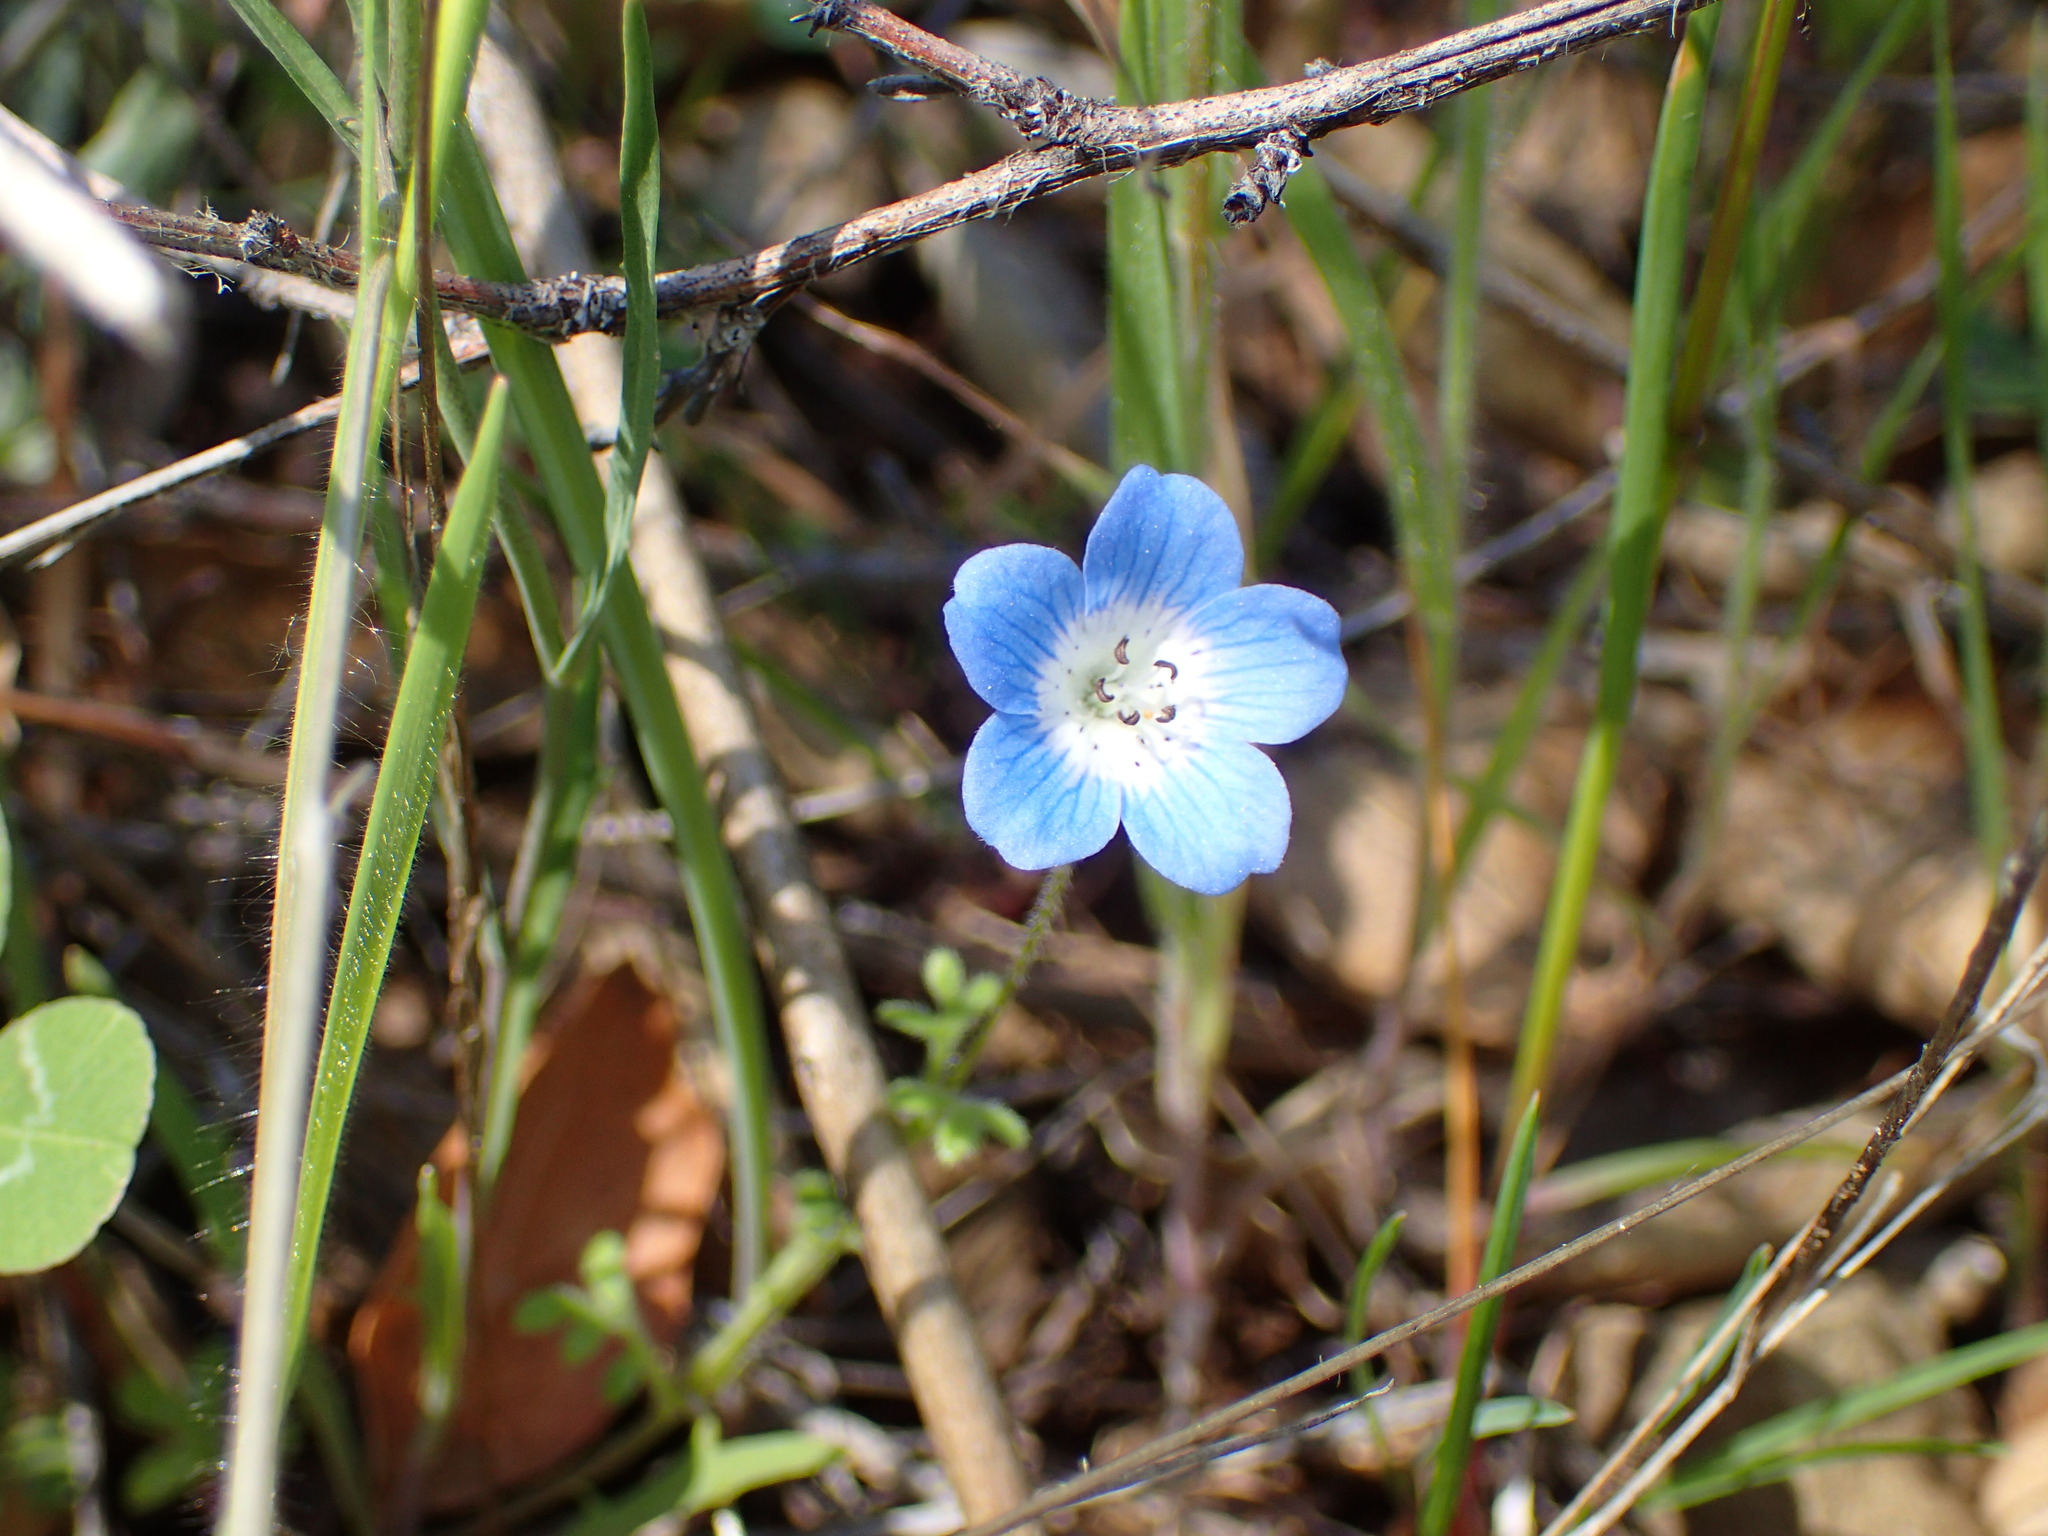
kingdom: Plantae
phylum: Tracheophyta
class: Magnoliopsida
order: Boraginales
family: Hydrophyllaceae
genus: Nemophila
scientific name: Nemophila menziesii
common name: Baby's-blue-eyes
